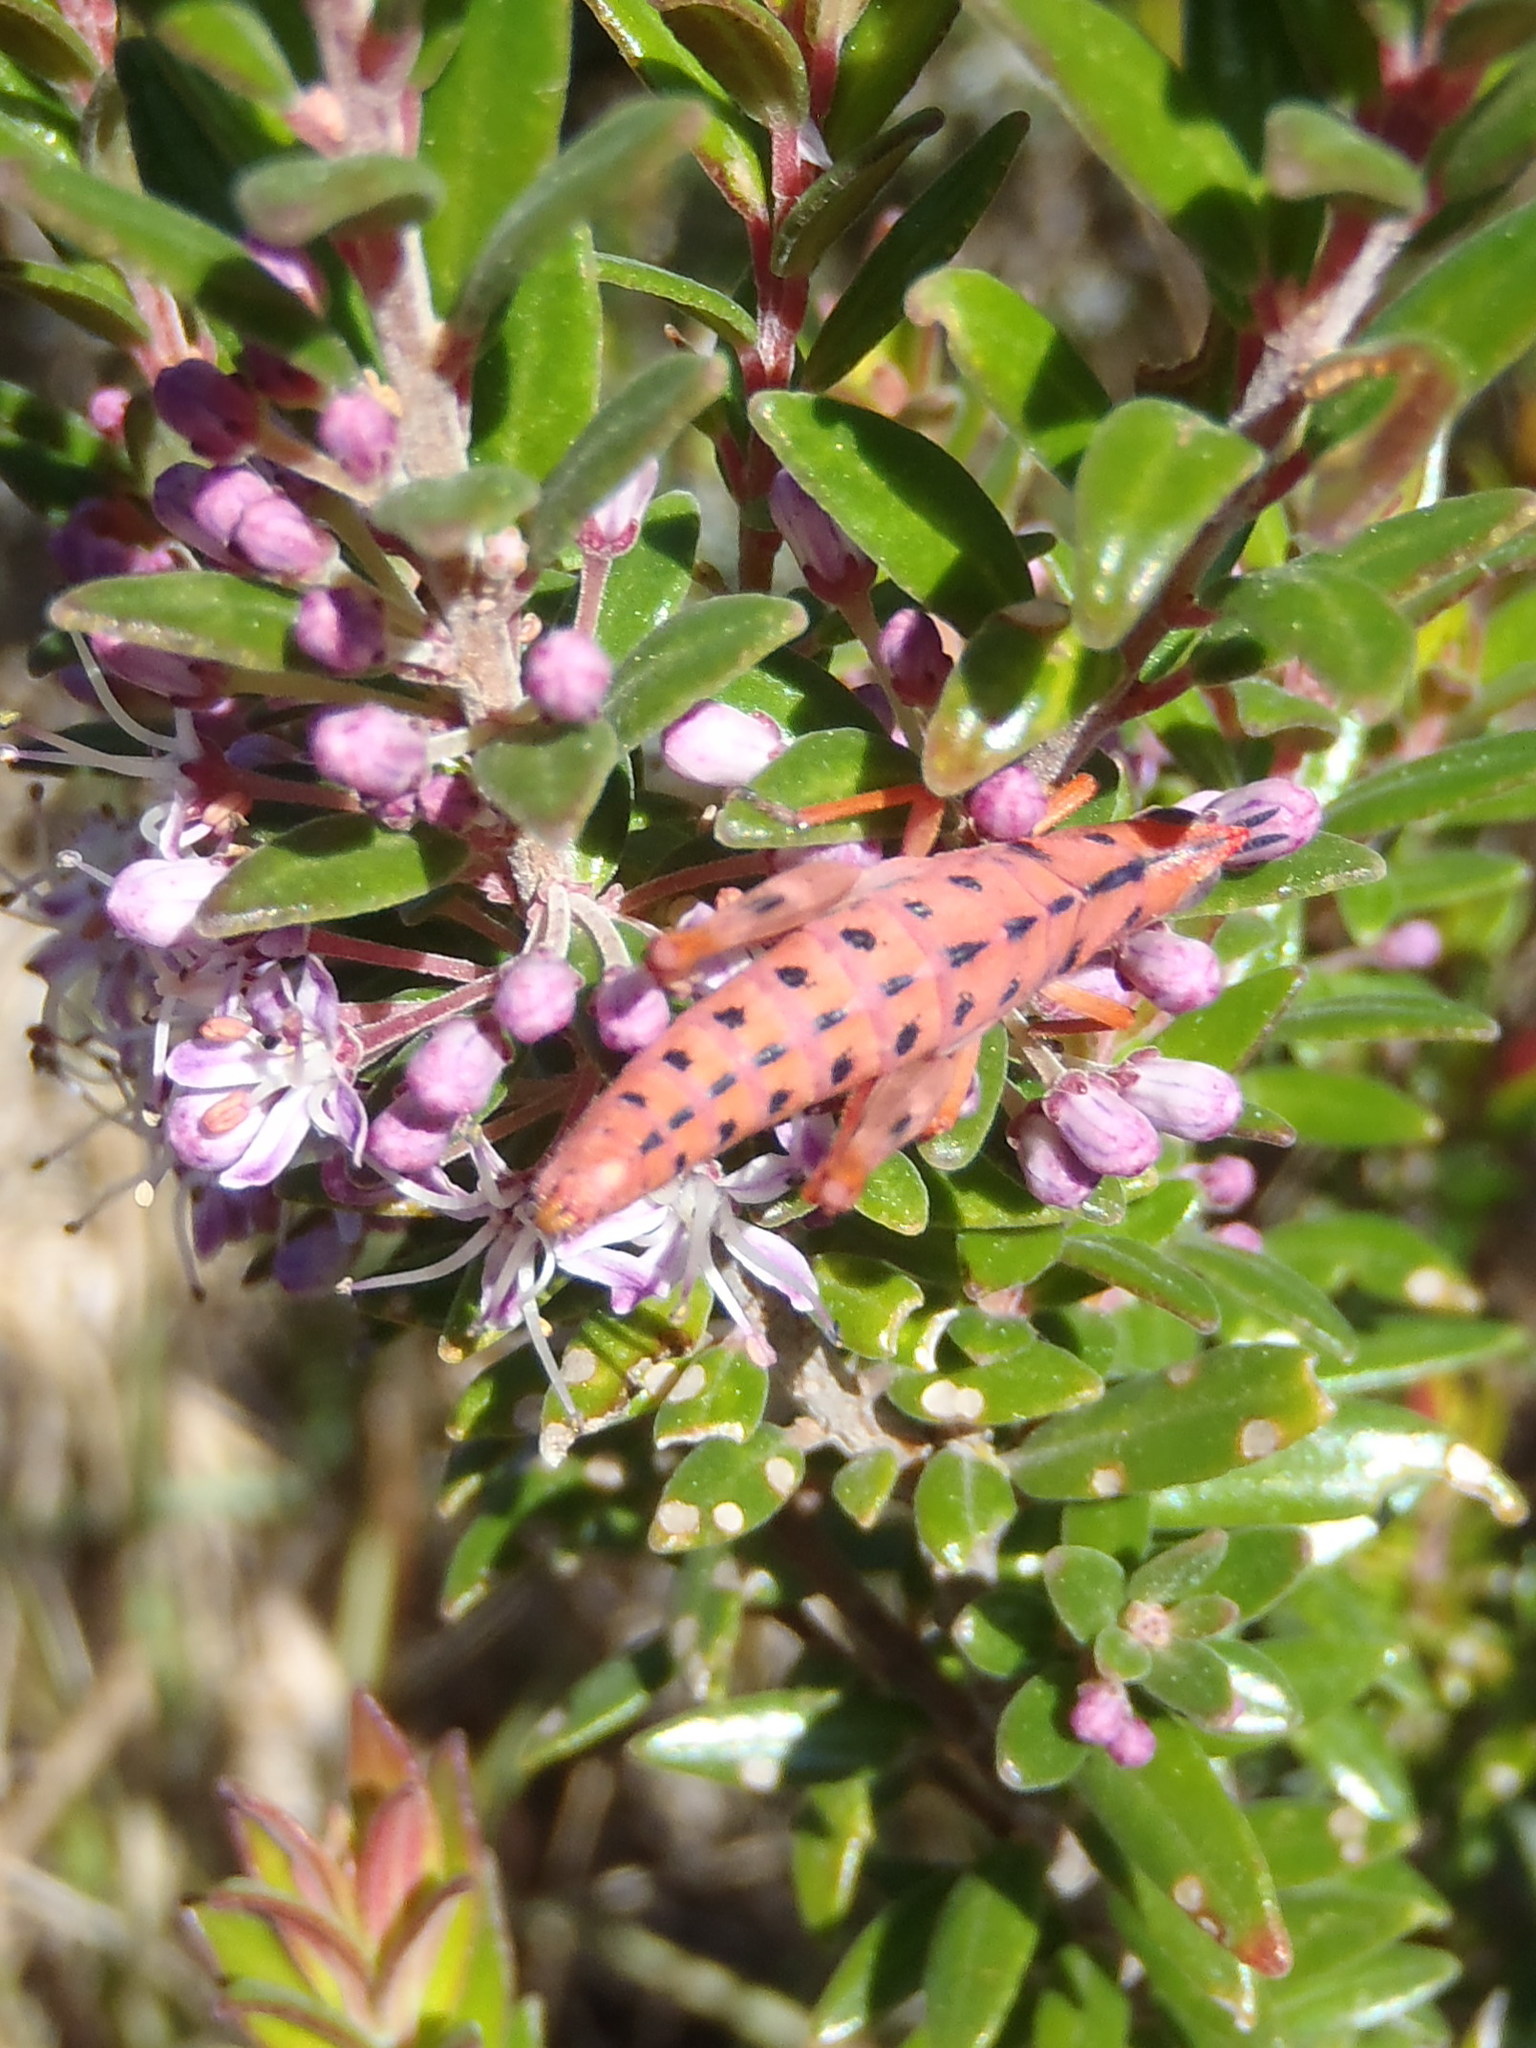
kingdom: Animalia
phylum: Arthropoda
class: Insecta
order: Orthoptera
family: Thericleidae
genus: Thericlesiella
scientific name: Thericlesiella meridionalis
